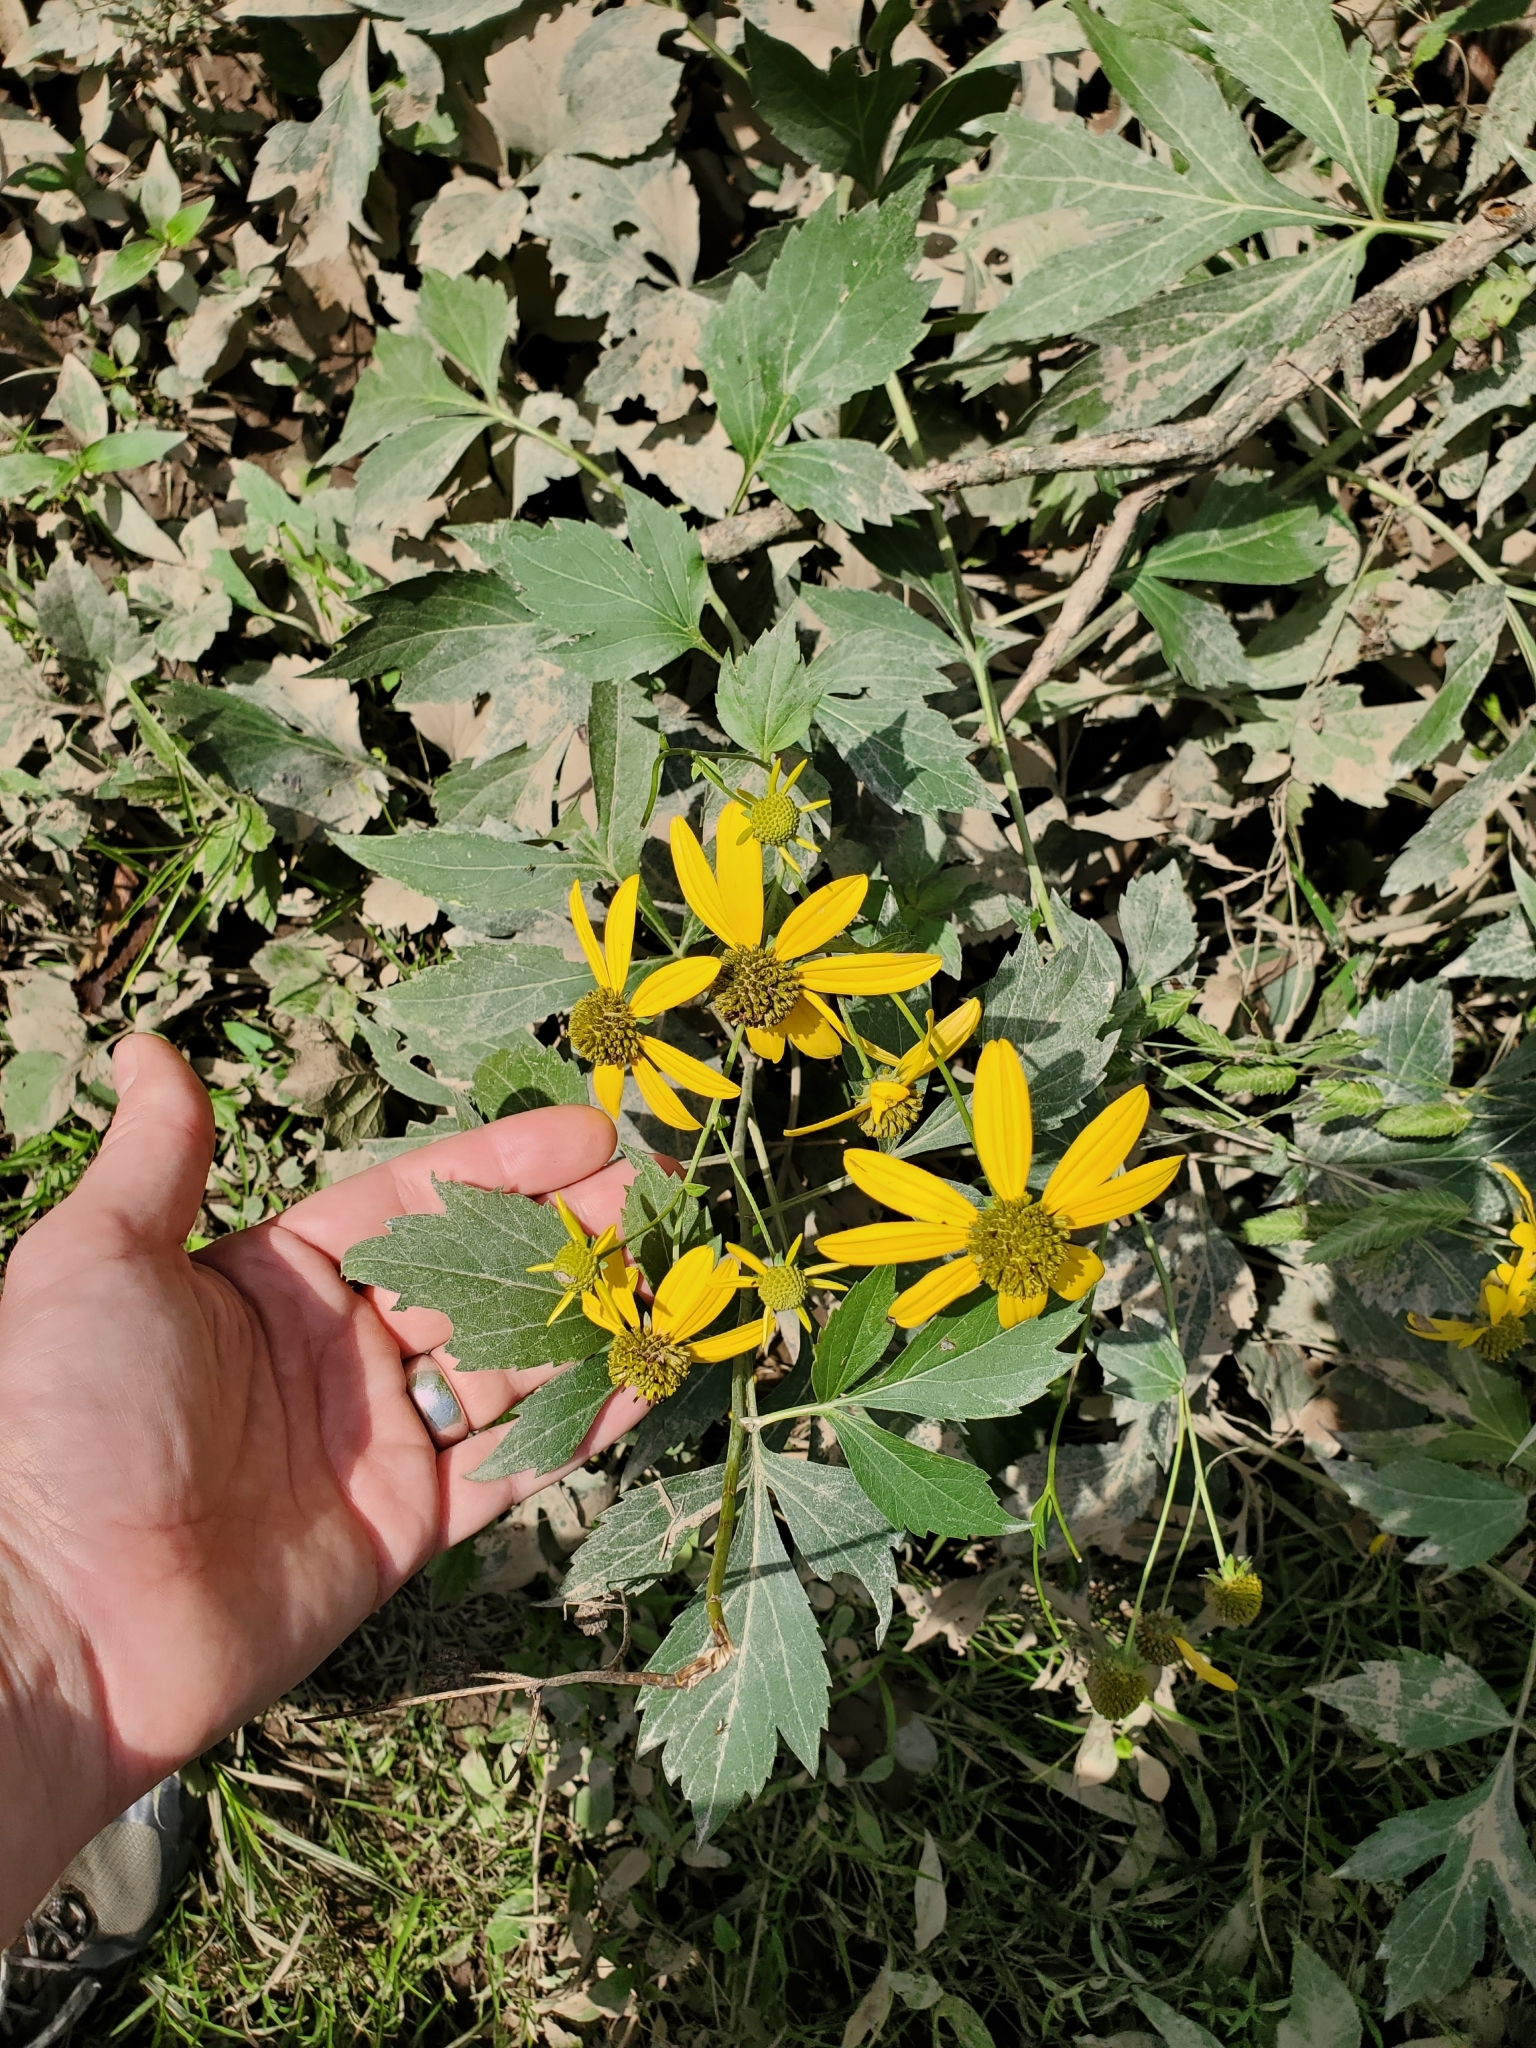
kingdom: Plantae
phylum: Tracheophyta
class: Magnoliopsida
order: Asterales
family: Asteraceae
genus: Rudbeckia
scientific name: Rudbeckia laciniata
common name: Coneflower
